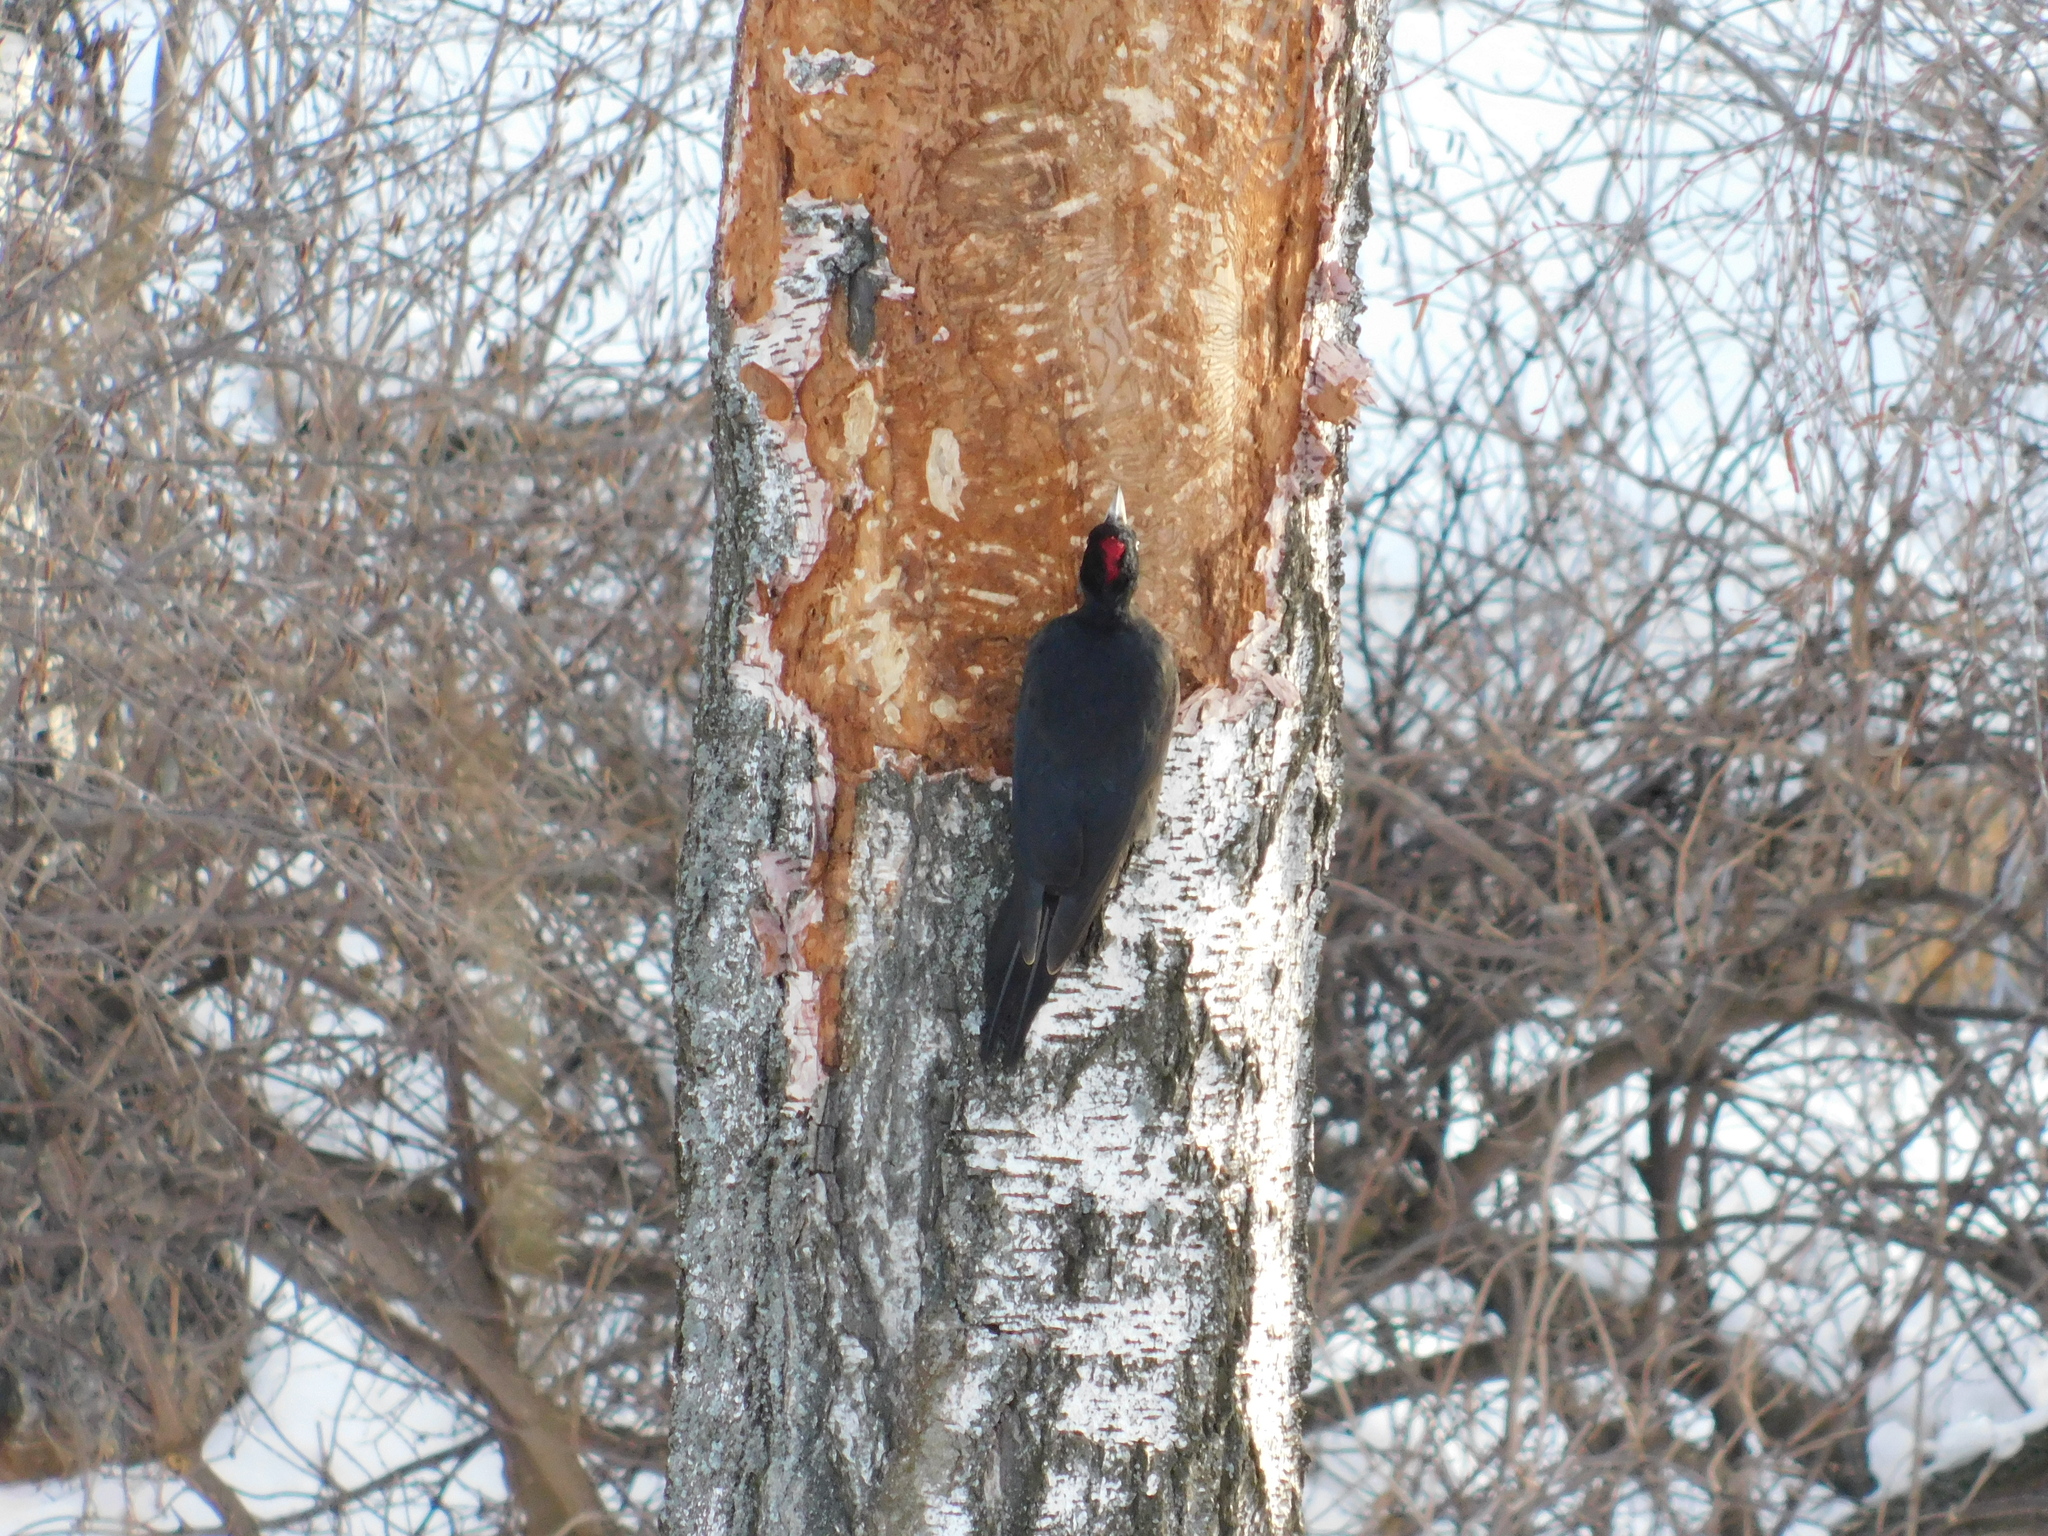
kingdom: Animalia
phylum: Arthropoda
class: Insecta
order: Coleoptera
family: Curculionidae
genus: Scolytus
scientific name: Scolytus ratzeburgii
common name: Birch bark beetle
